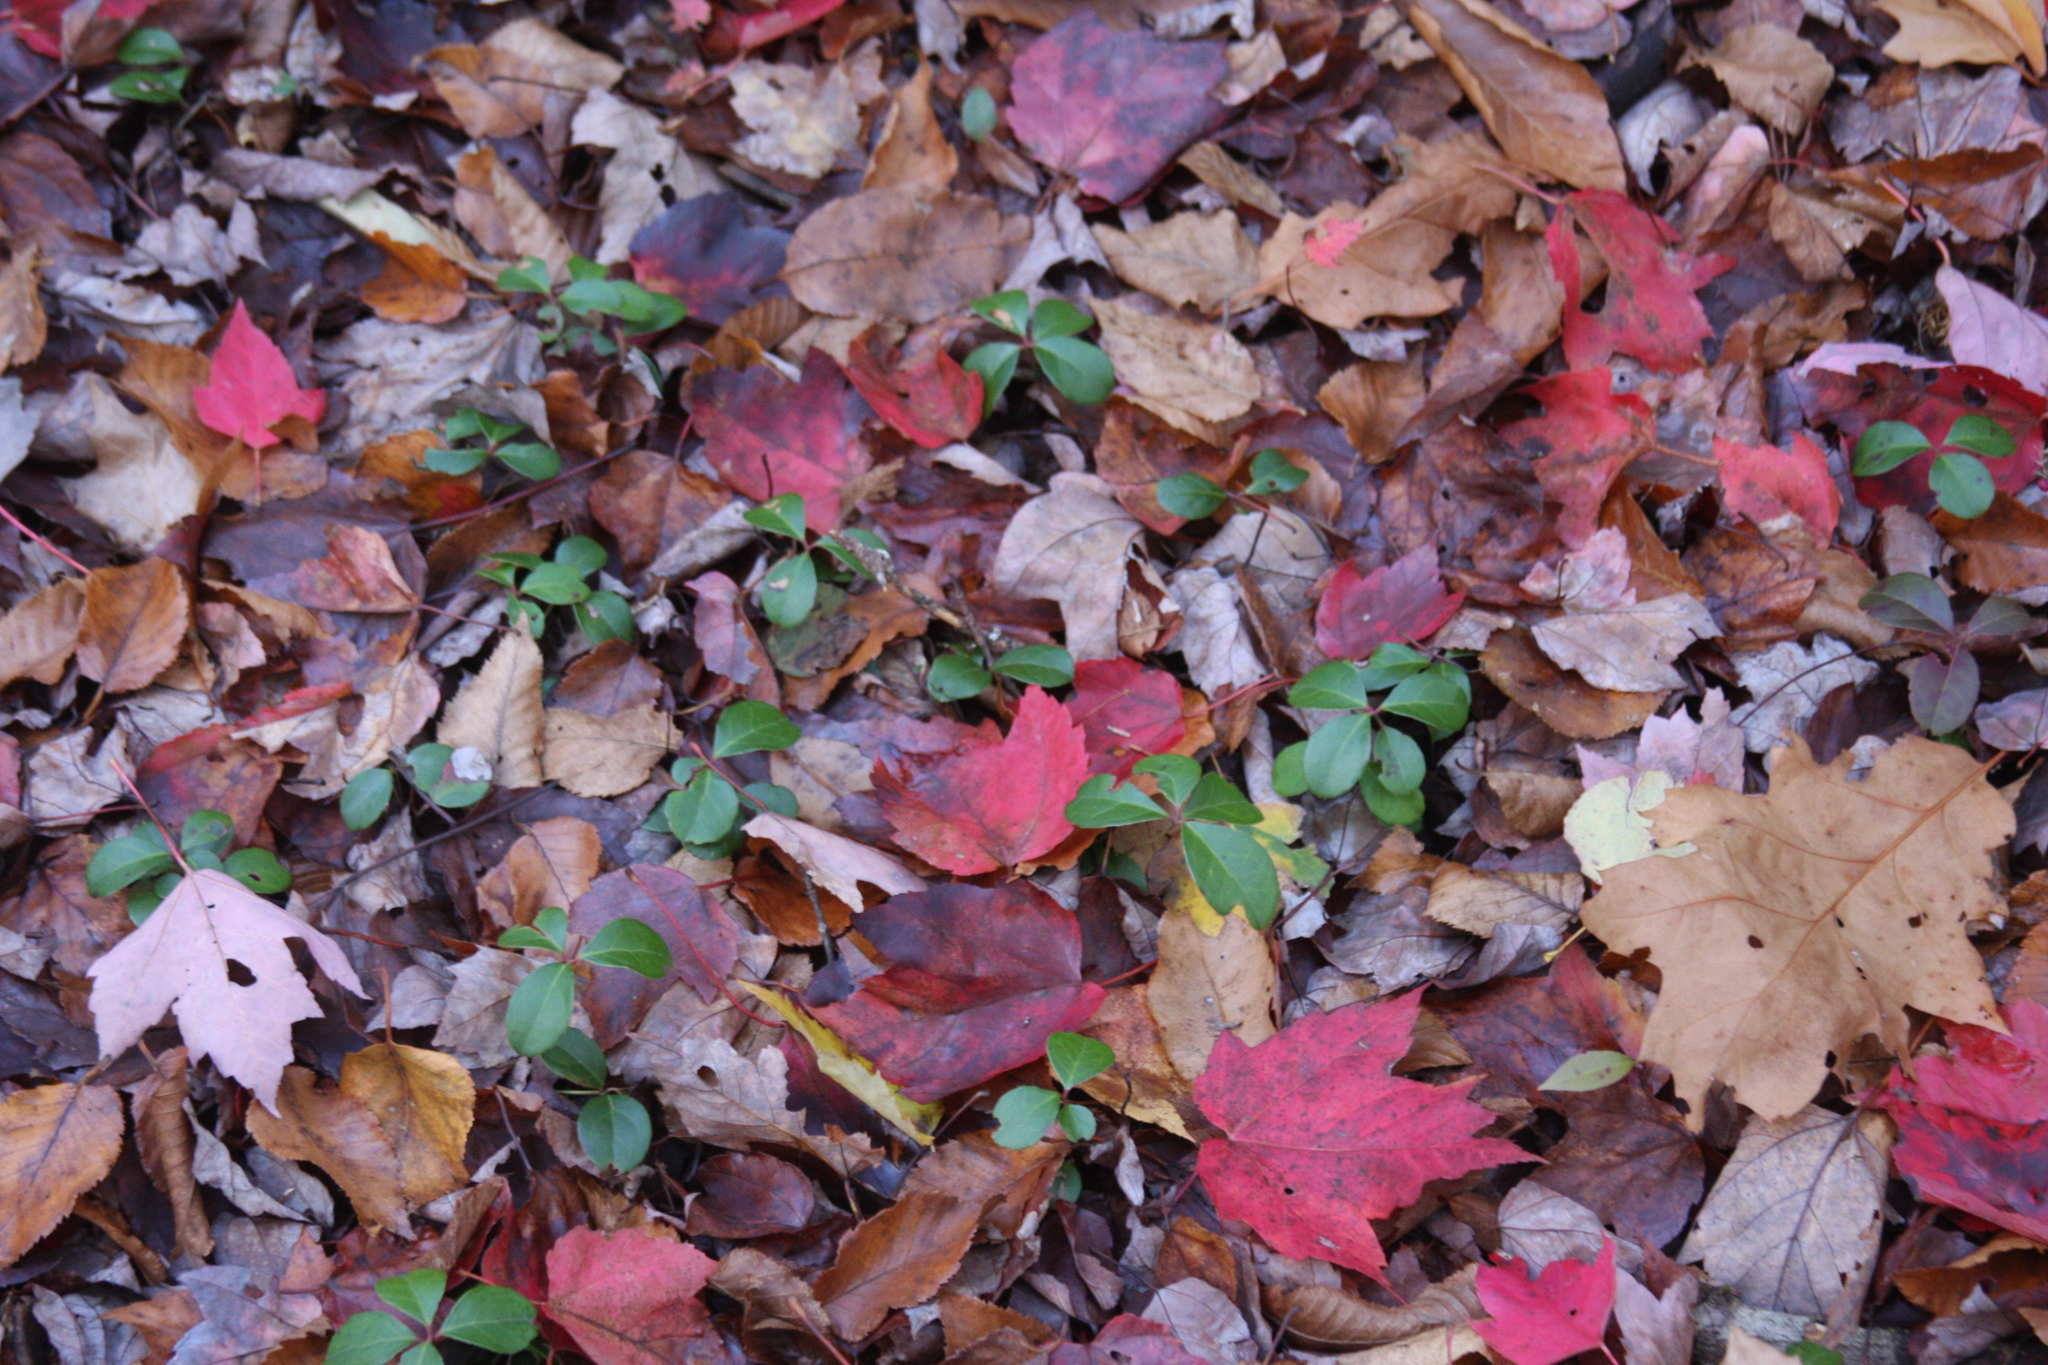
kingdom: Plantae
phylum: Tracheophyta
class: Magnoliopsida
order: Ericales
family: Ericaceae
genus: Gaultheria
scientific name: Gaultheria procumbens
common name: Checkerberry
